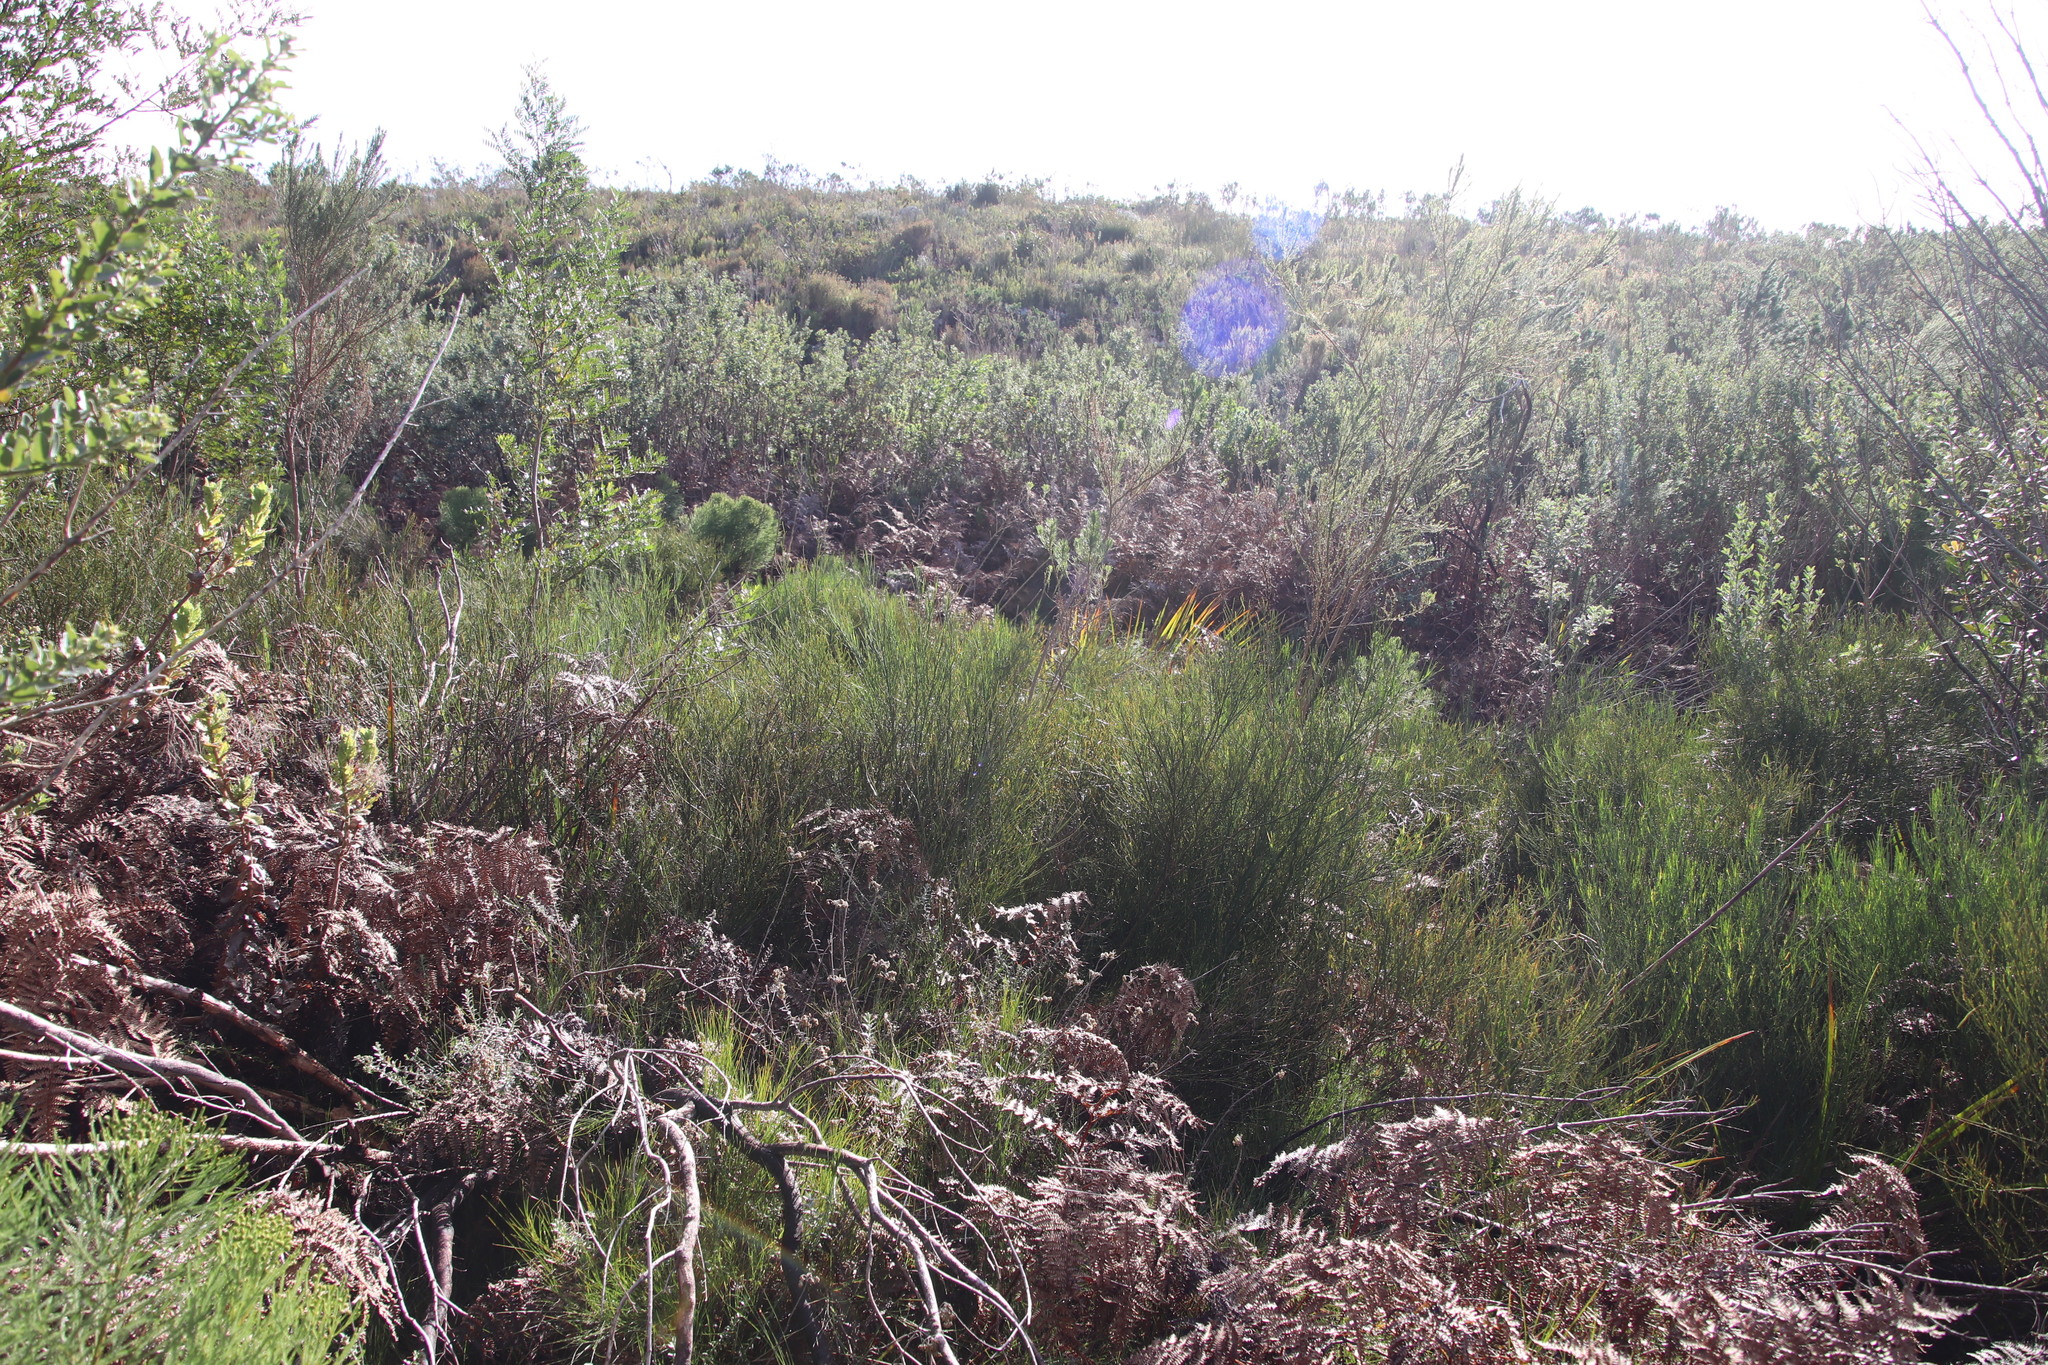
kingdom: Plantae
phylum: Tracheophyta
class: Magnoliopsida
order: Fabales
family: Fabaceae
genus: Indigofera
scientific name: Indigofera filifolia
